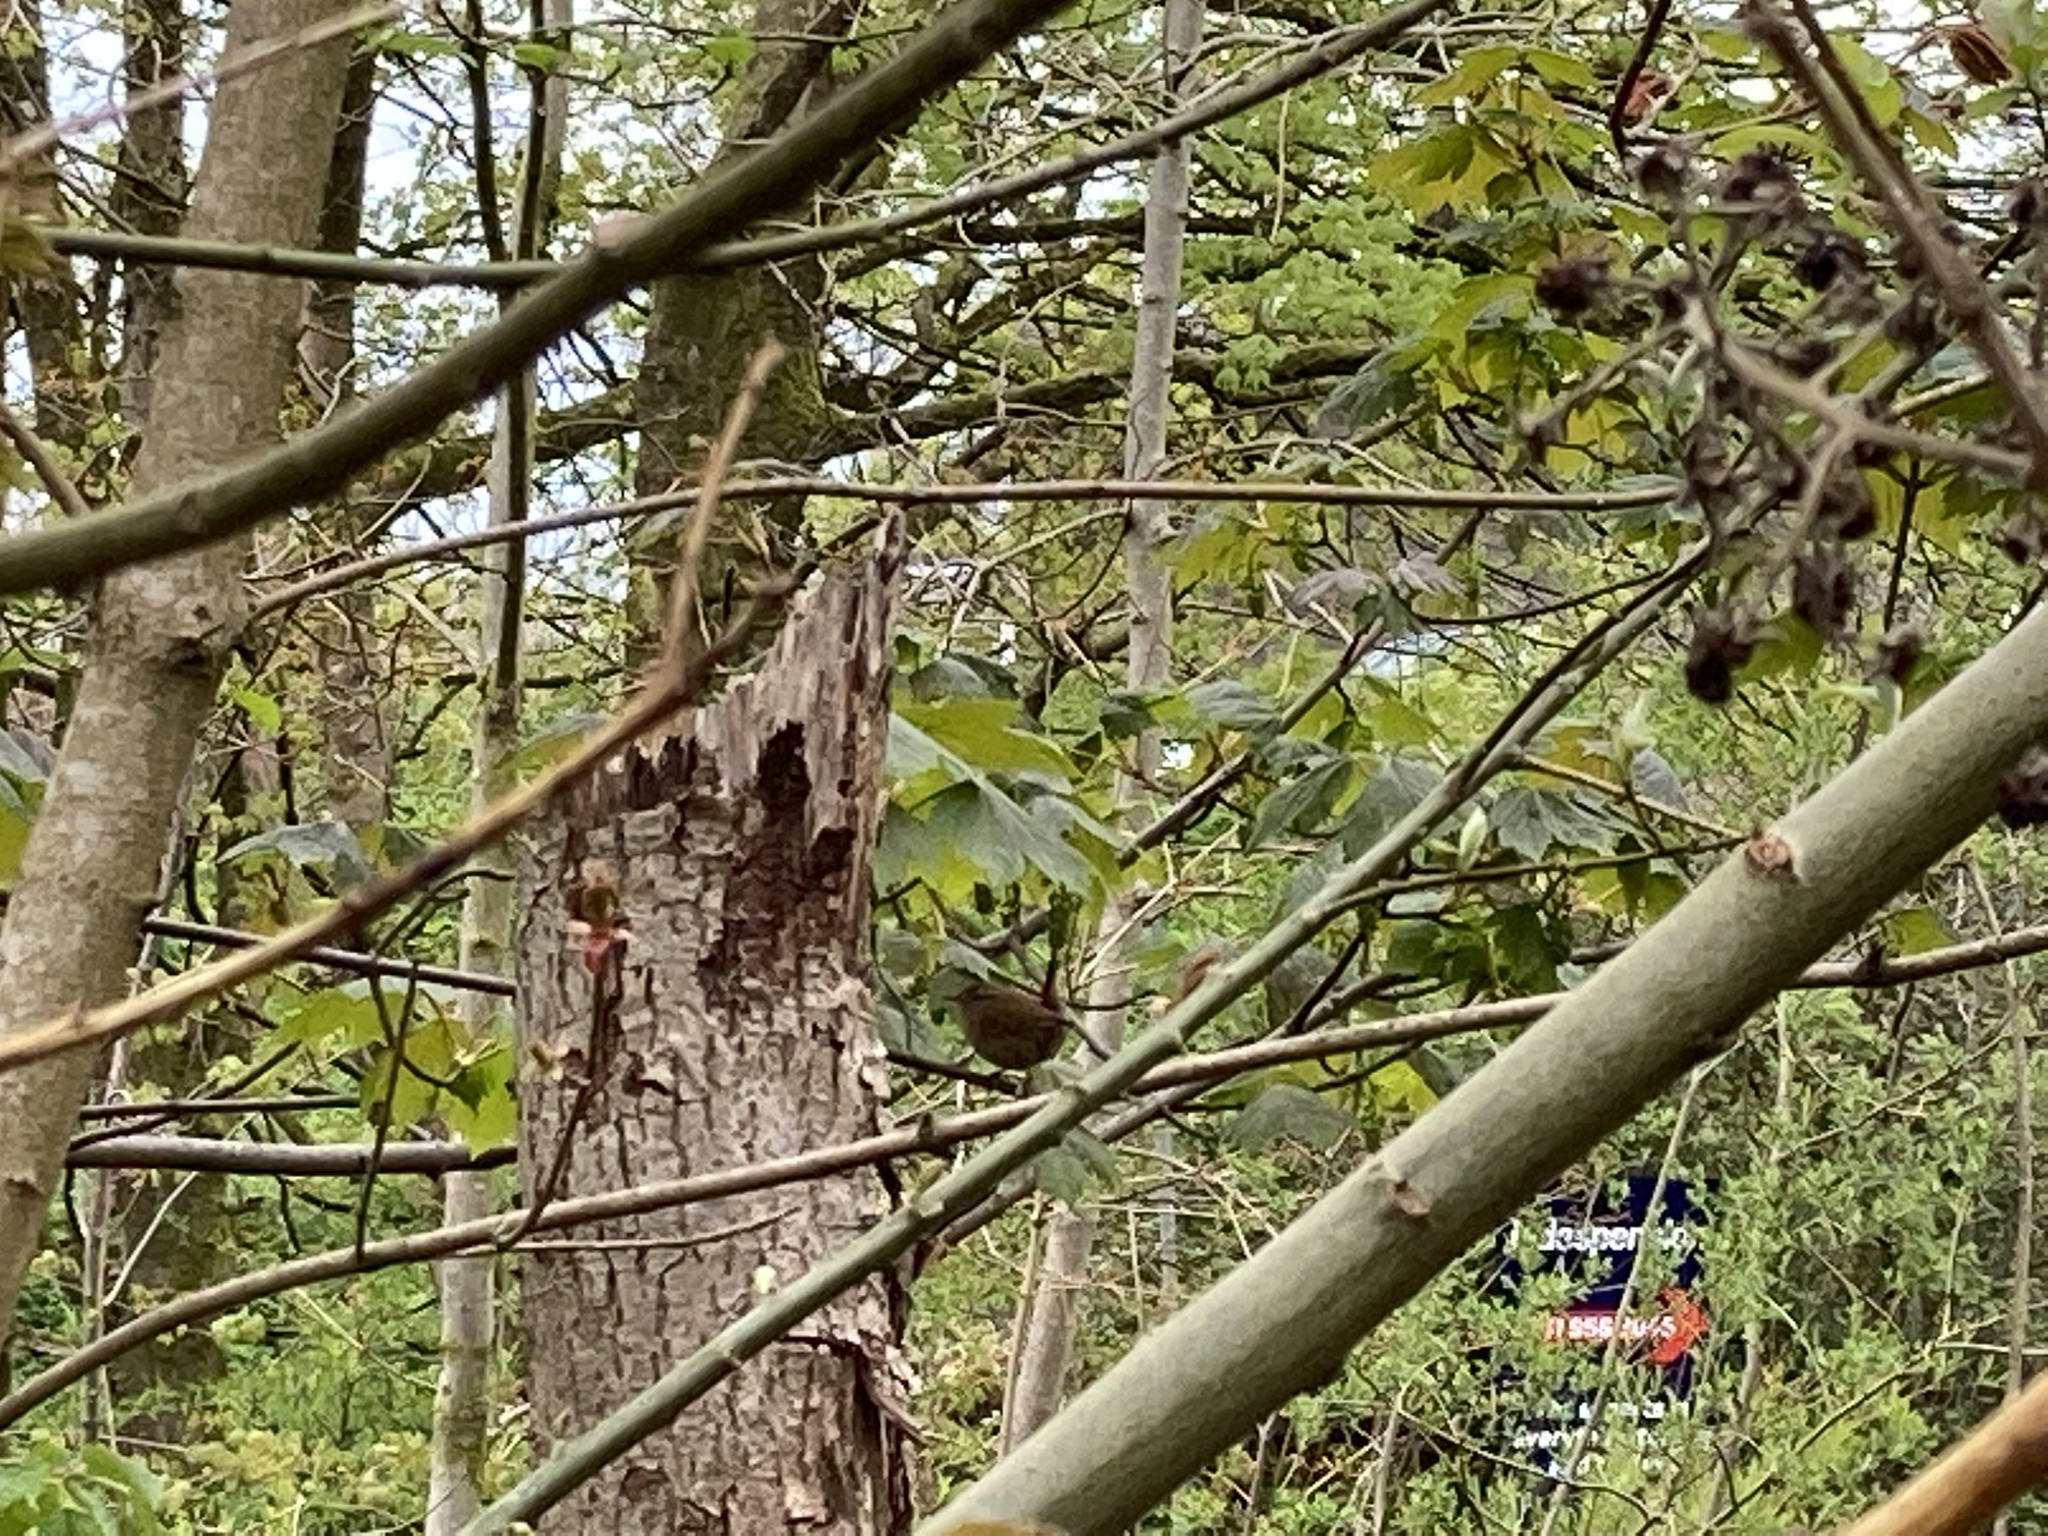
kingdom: Animalia
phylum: Chordata
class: Aves
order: Passeriformes
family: Troglodytidae
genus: Troglodytes
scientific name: Troglodytes troglodytes
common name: Eurasian wren
